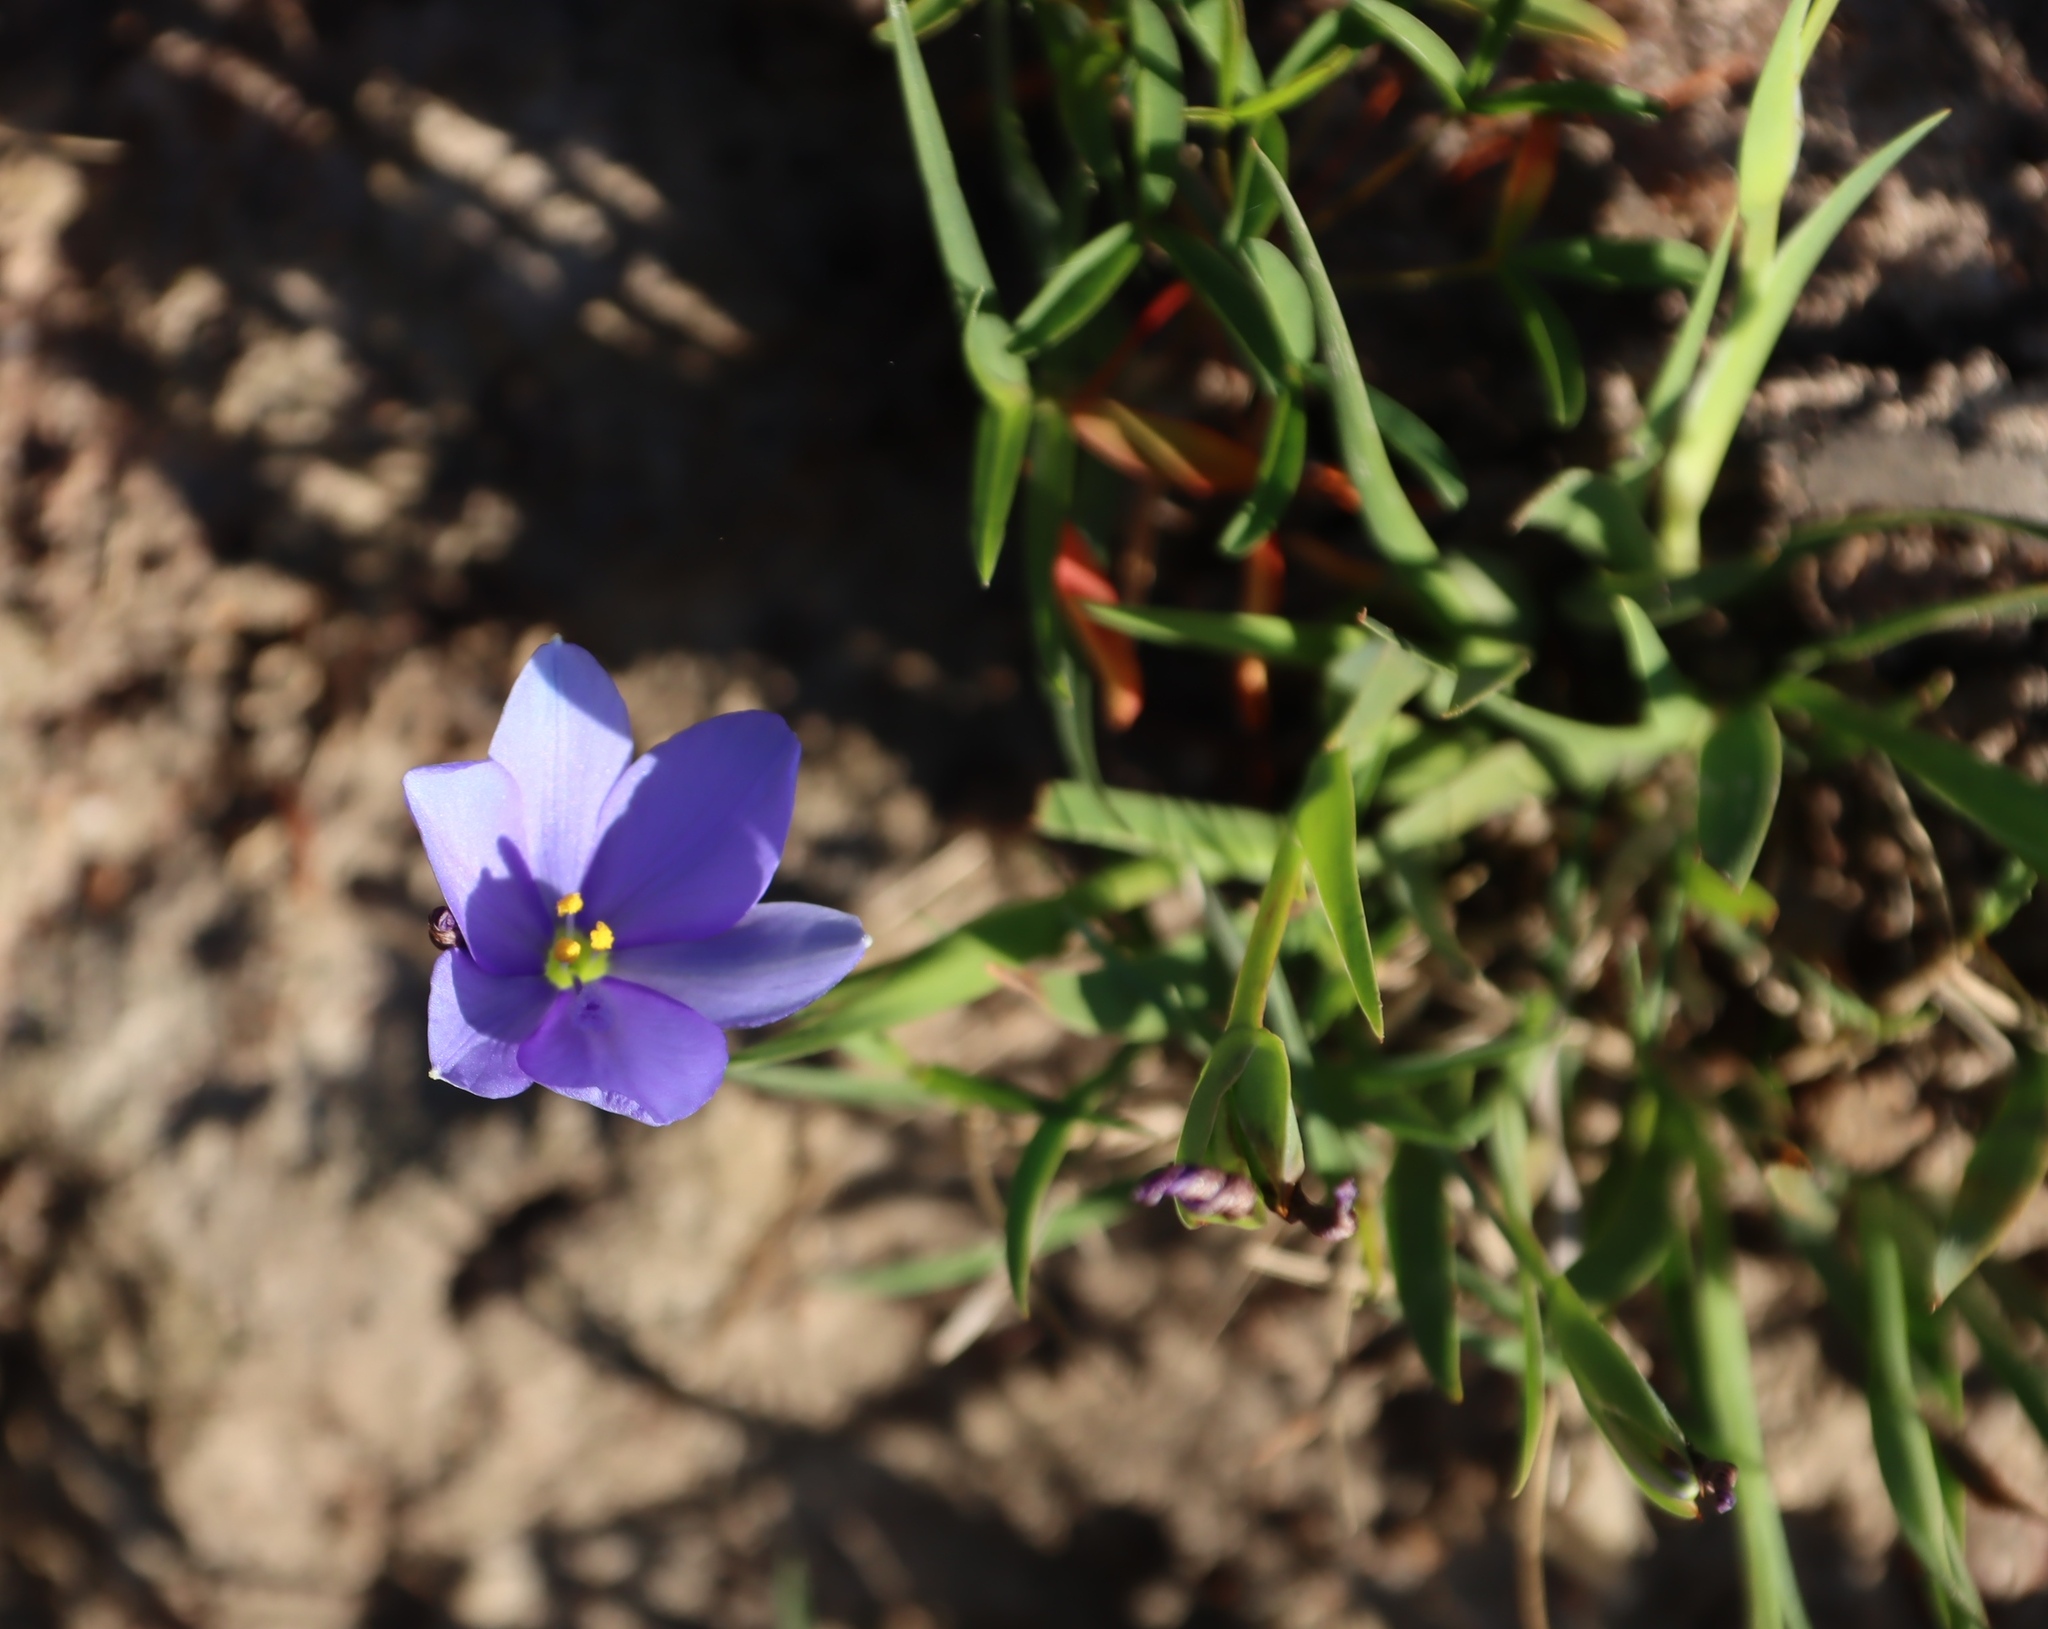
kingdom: Plantae
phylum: Tracheophyta
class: Liliopsida
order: Asparagales
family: Iridaceae
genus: Aristea
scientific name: Aristea pusilla
